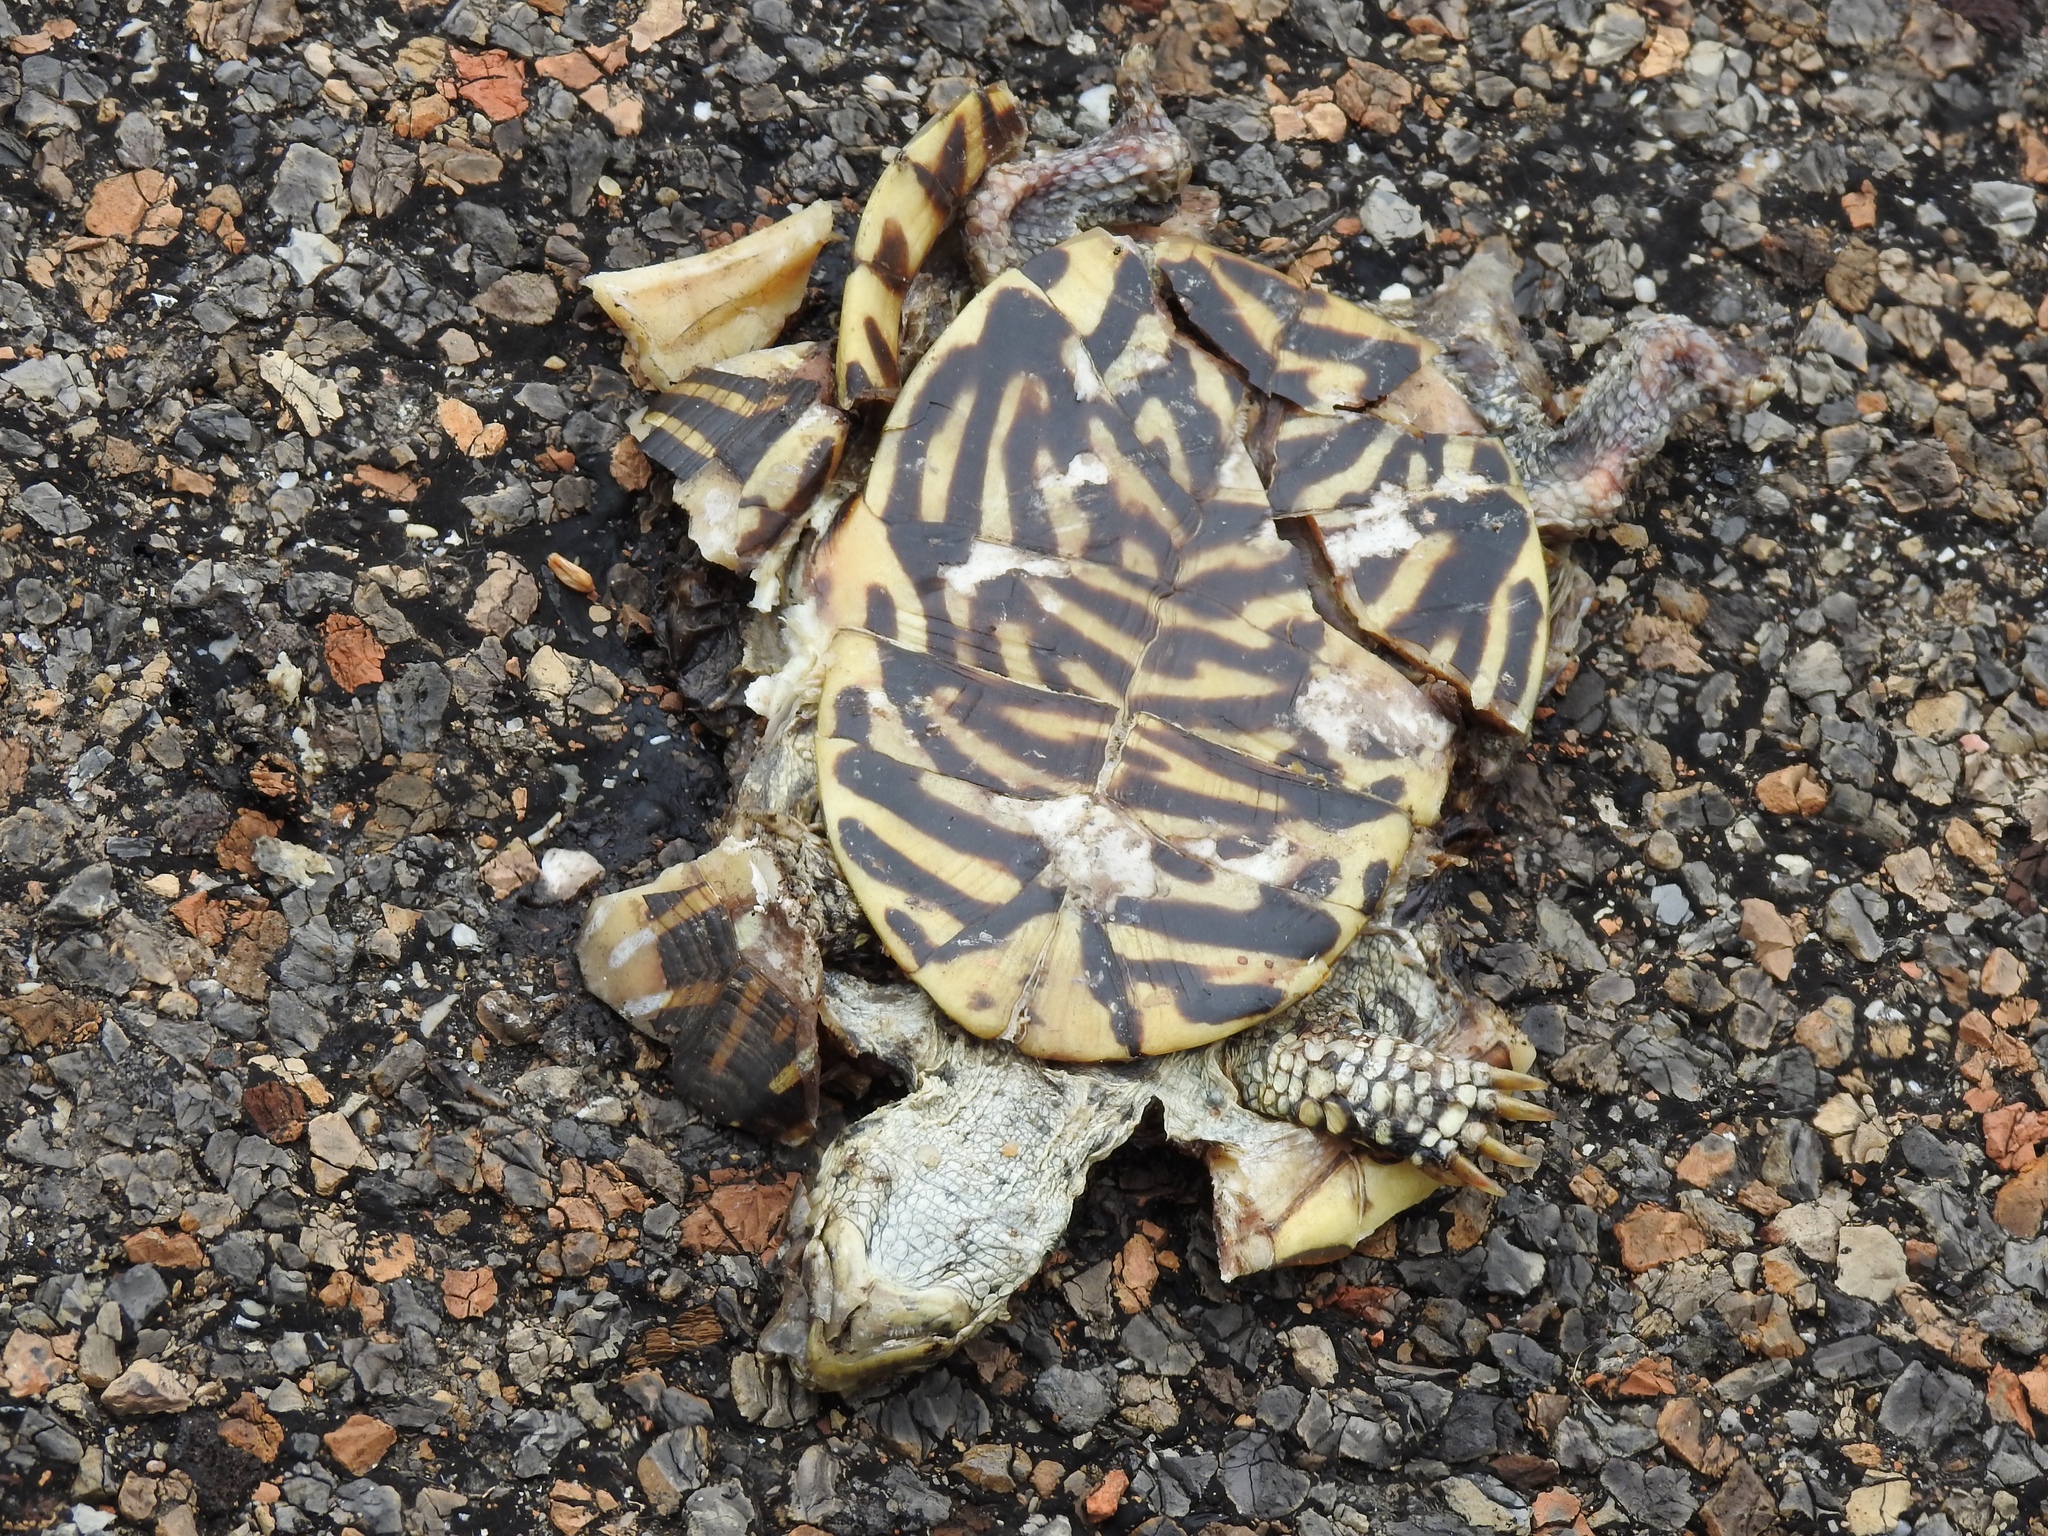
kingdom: Animalia
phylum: Chordata
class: Testudines
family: Emydidae
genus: Terrapene
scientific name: Terrapene ornata
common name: Western box turtle
